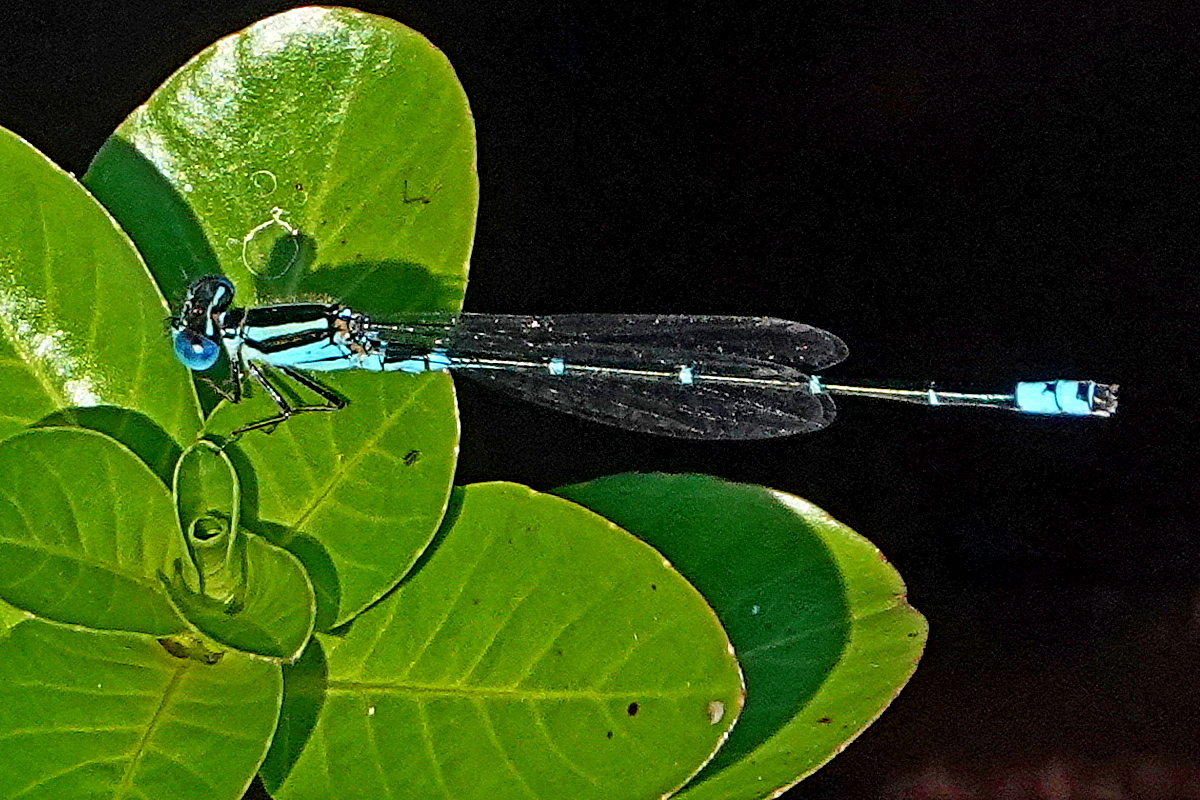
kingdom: Animalia
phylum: Arthropoda
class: Insecta
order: Odonata
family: Coenagrionidae
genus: Austroagrion
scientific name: Austroagrion watsoni
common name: Eastern billabongfly
